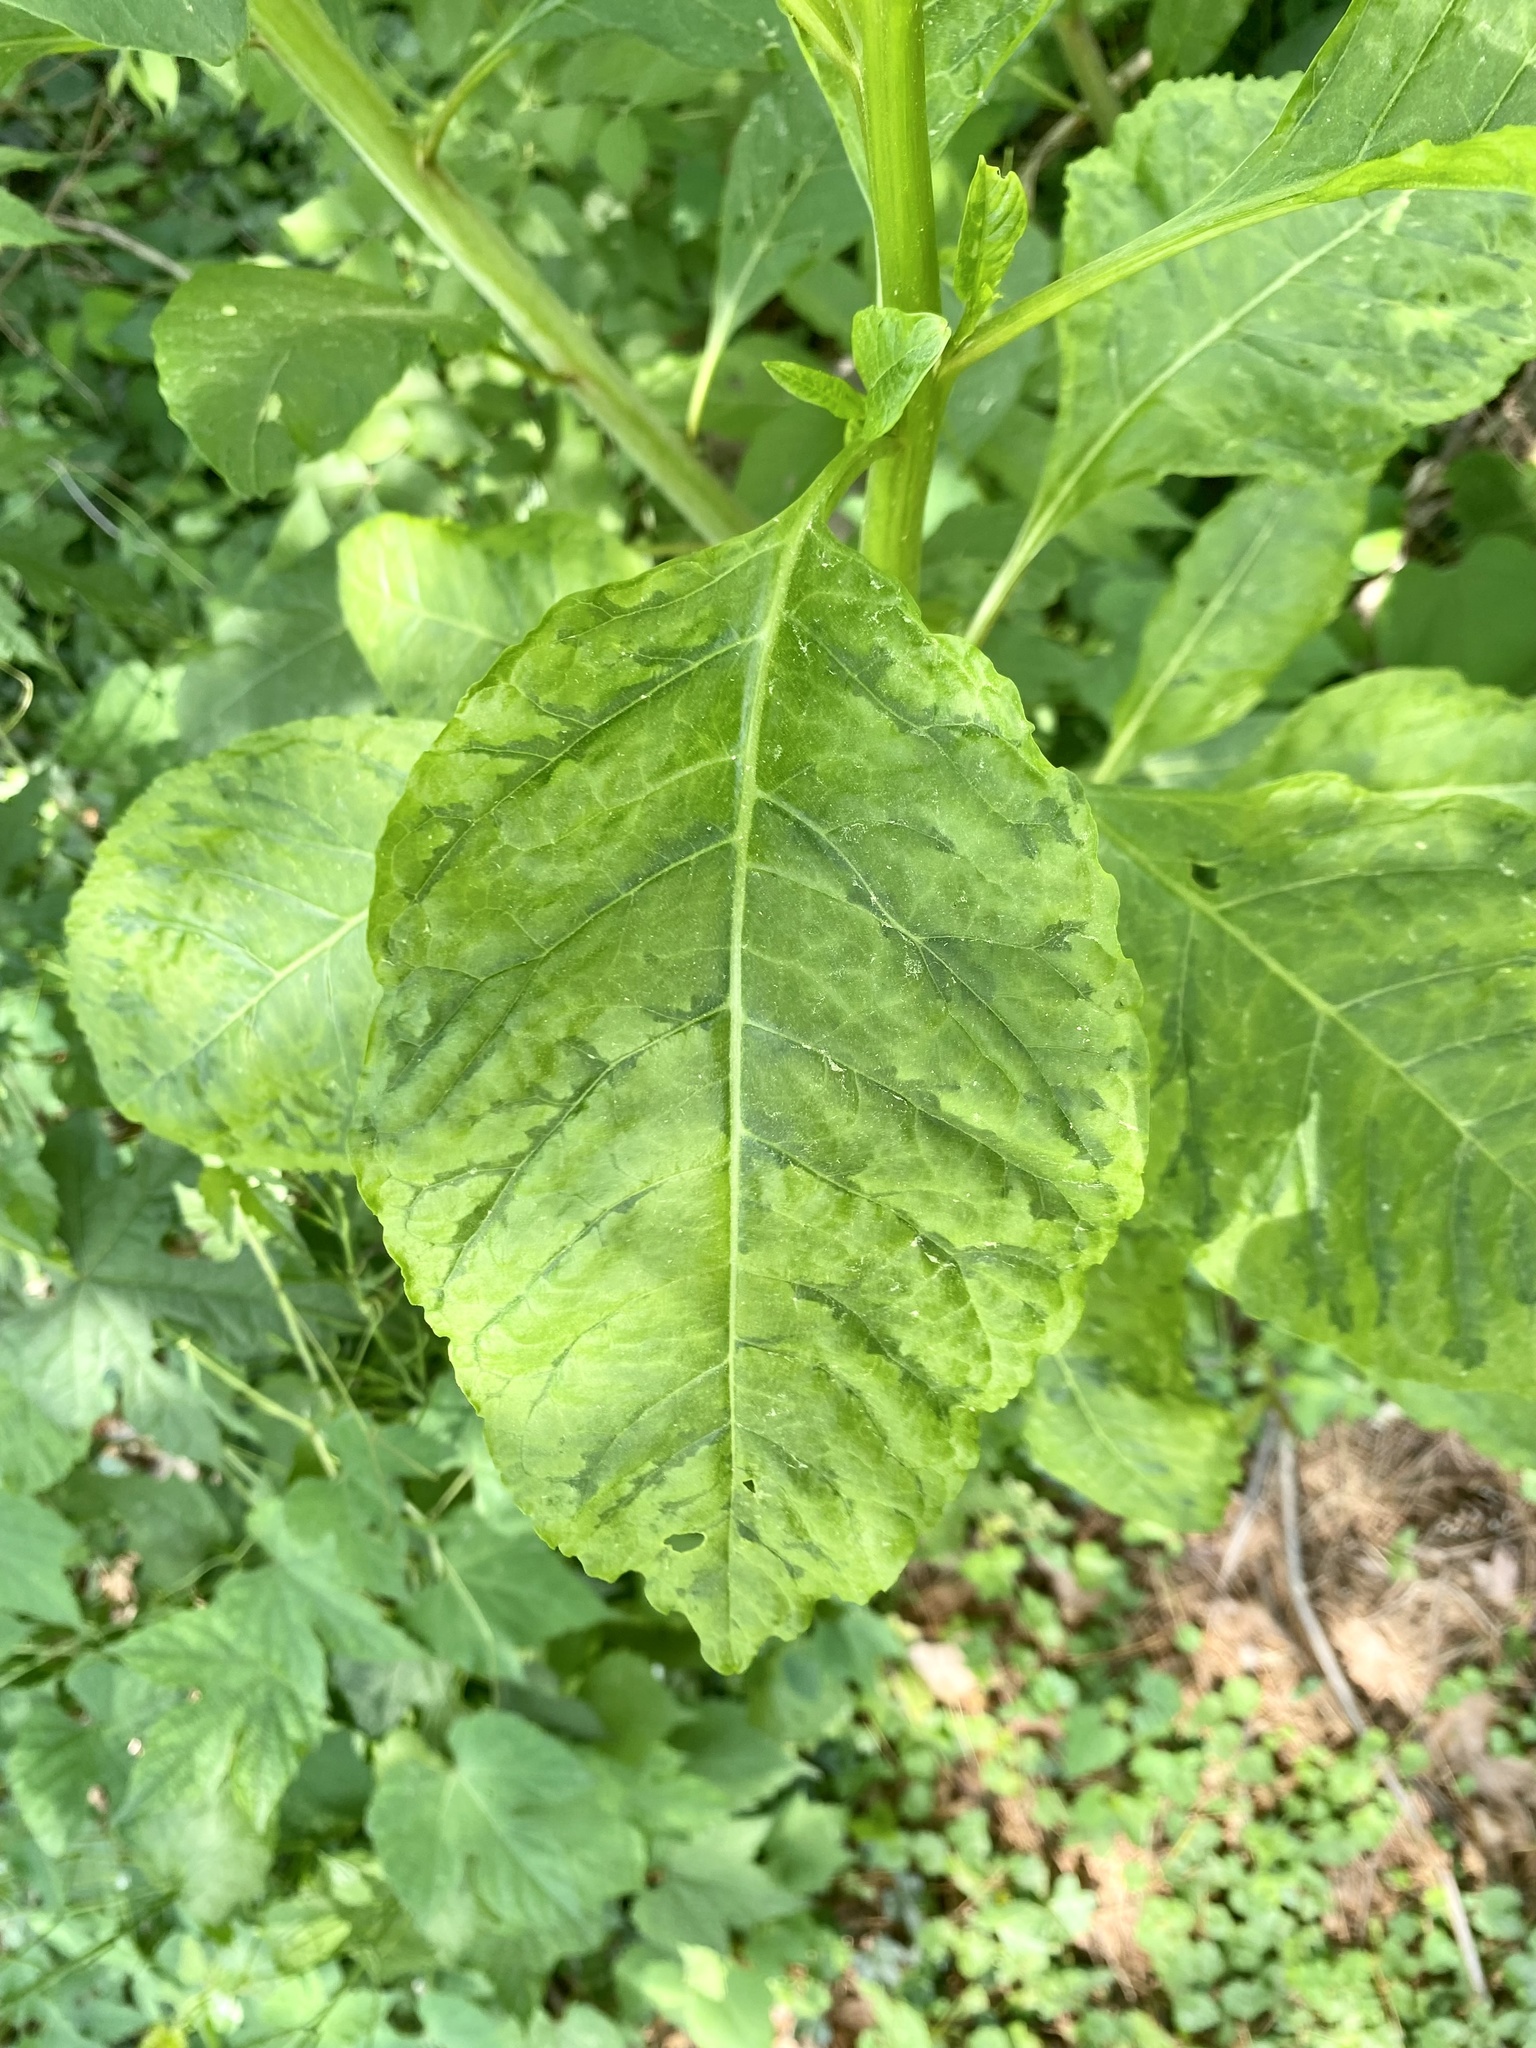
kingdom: Viruses
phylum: Pisuviricota
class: Stelpaviricetes
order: Patatavirales
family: Potyviridae
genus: Potyvirus
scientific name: Potyvirus Pokeweed mosaic virus
